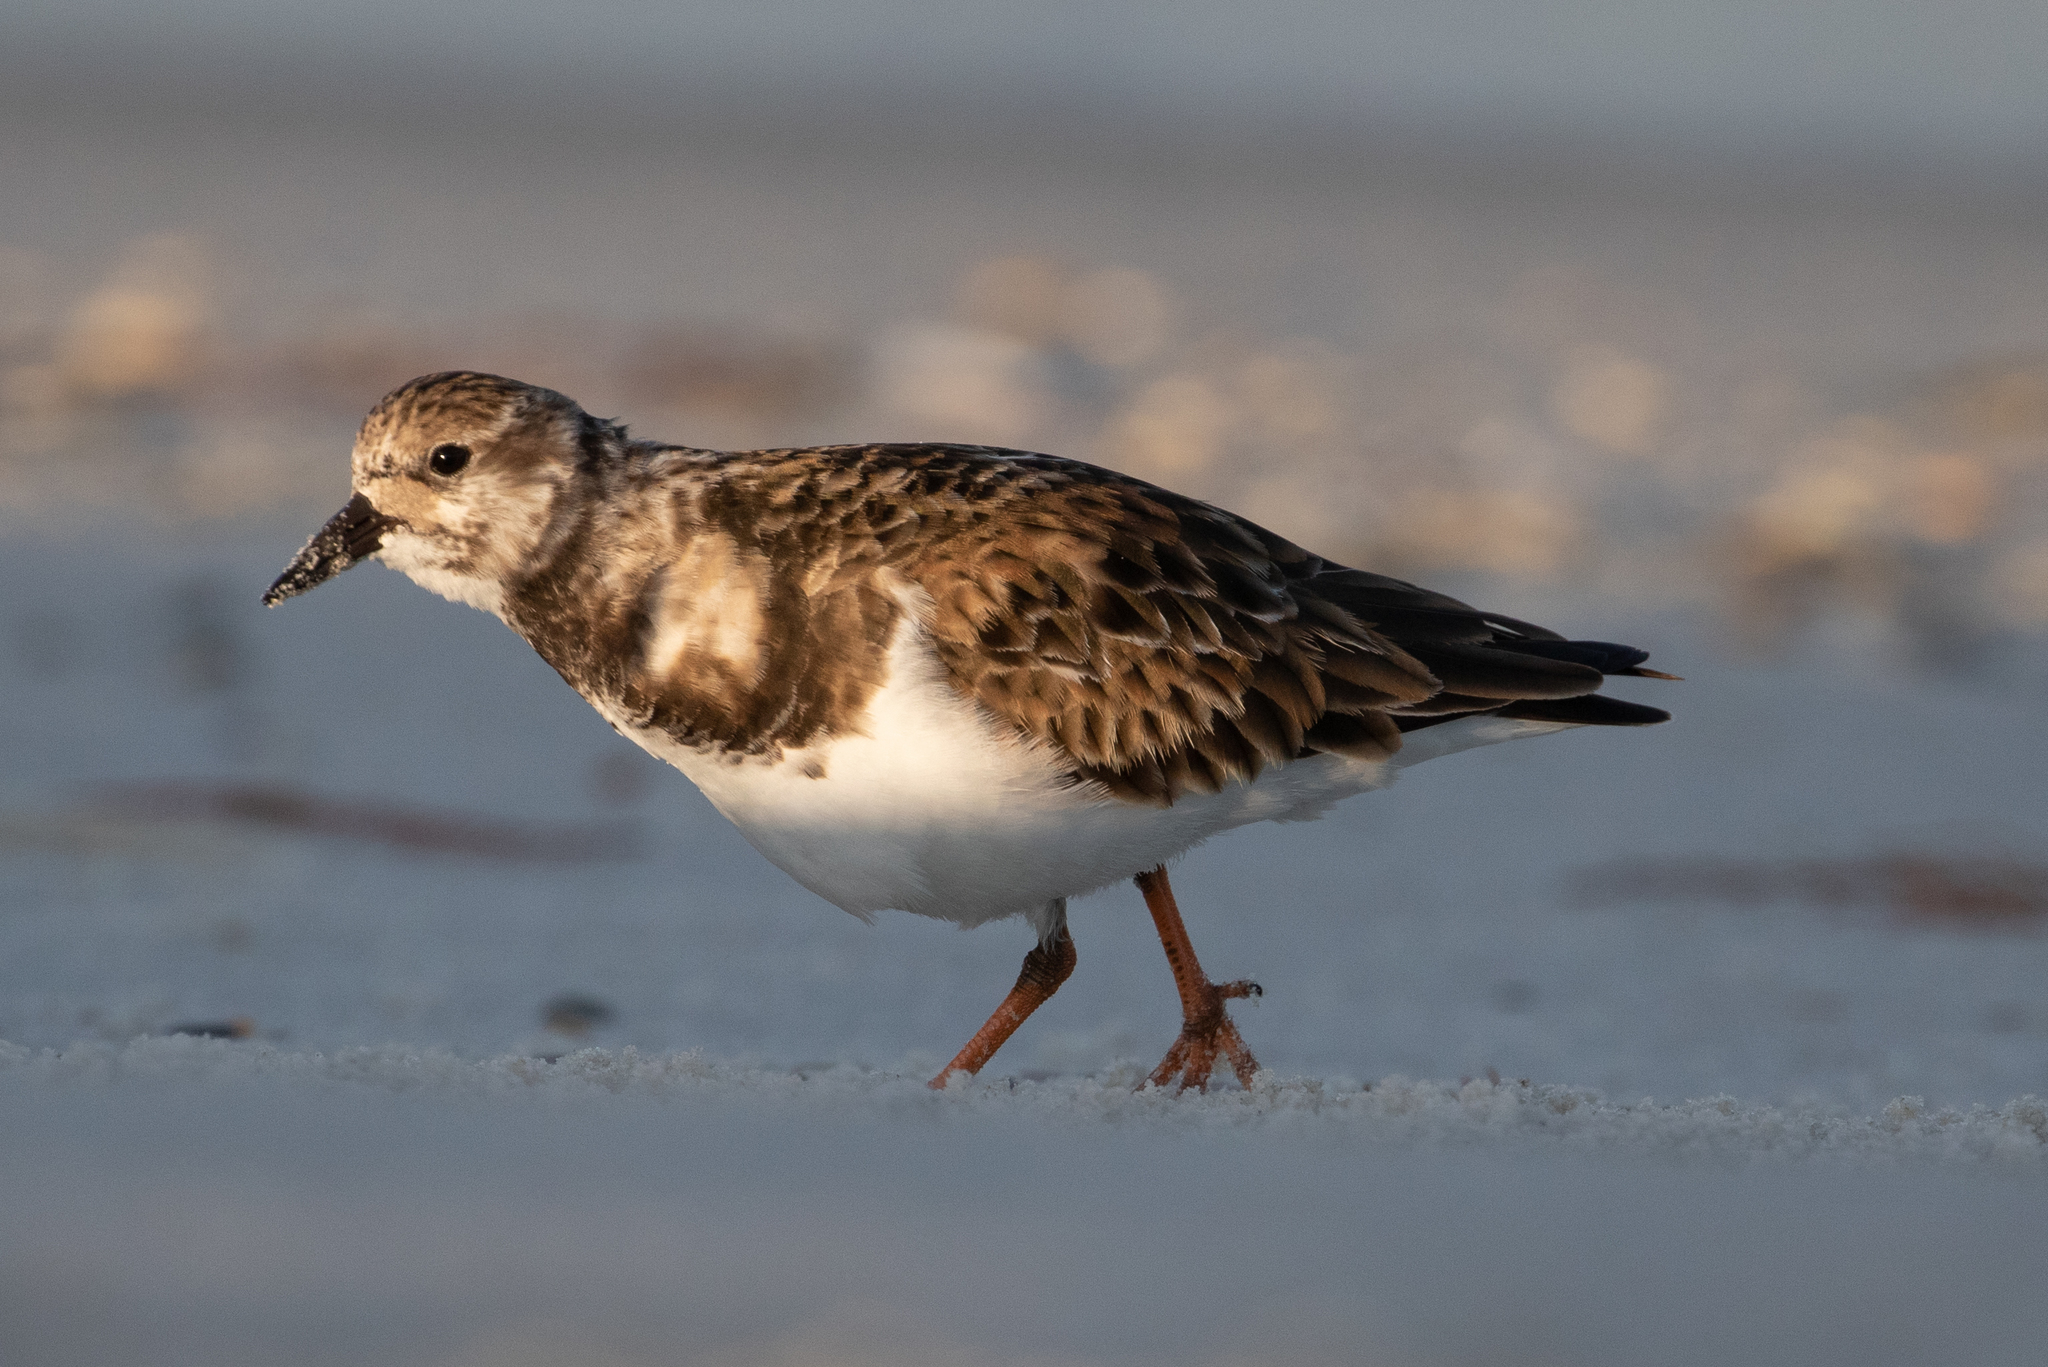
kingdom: Animalia
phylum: Chordata
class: Aves
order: Charadriiformes
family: Scolopacidae
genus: Arenaria
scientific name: Arenaria interpres
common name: Ruddy turnstone
